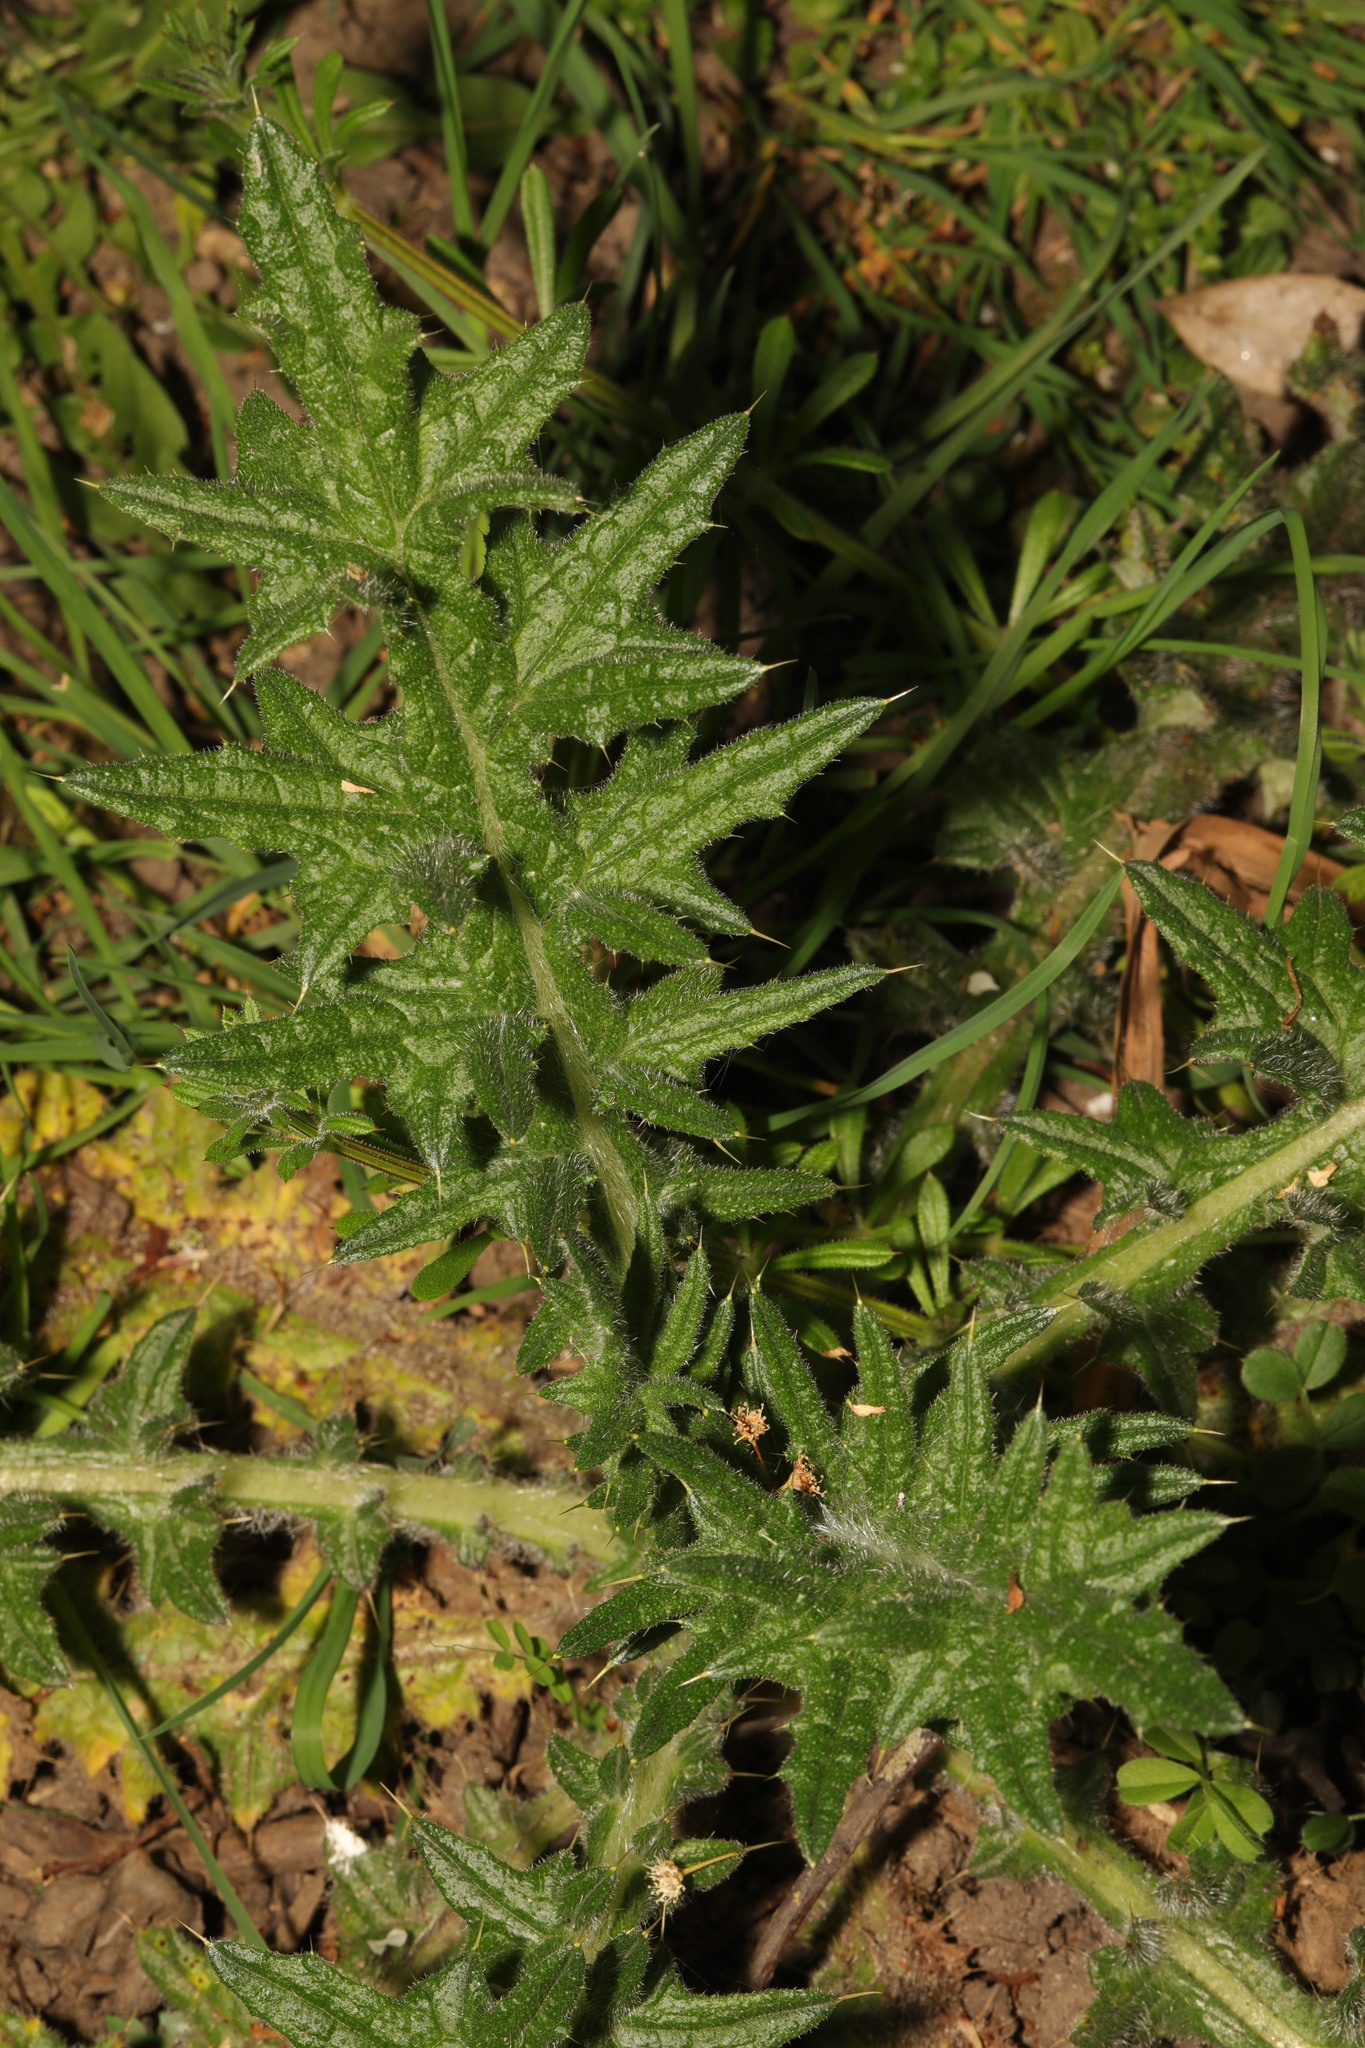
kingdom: Plantae
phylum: Tracheophyta
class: Magnoliopsida
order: Asterales
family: Asteraceae
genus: Cirsium
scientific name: Cirsium vulgare
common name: Bull thistle
